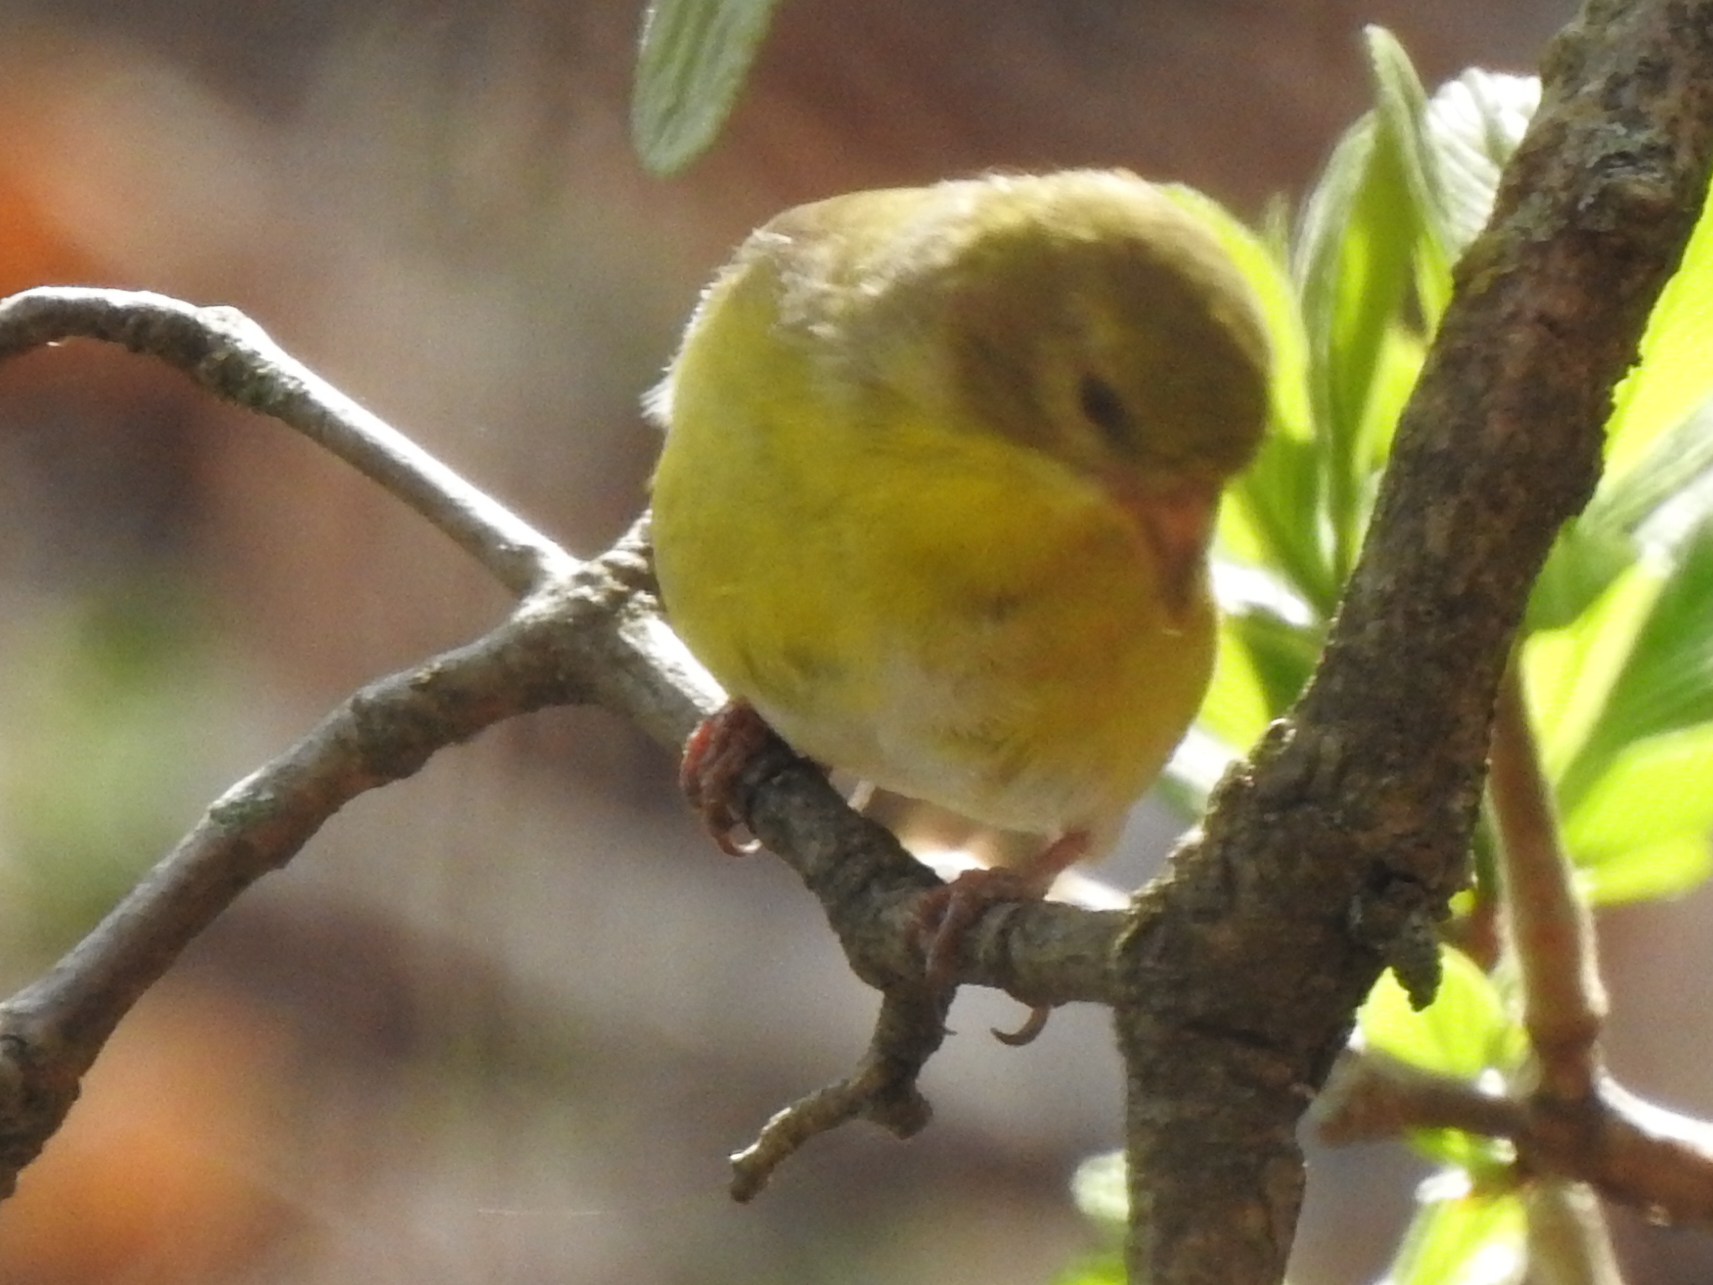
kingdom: Animalia
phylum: Chordata
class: Aves
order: Passeriformes
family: Fringillidae
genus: Spinus
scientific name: Spinus tristis
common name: American goldfinch
